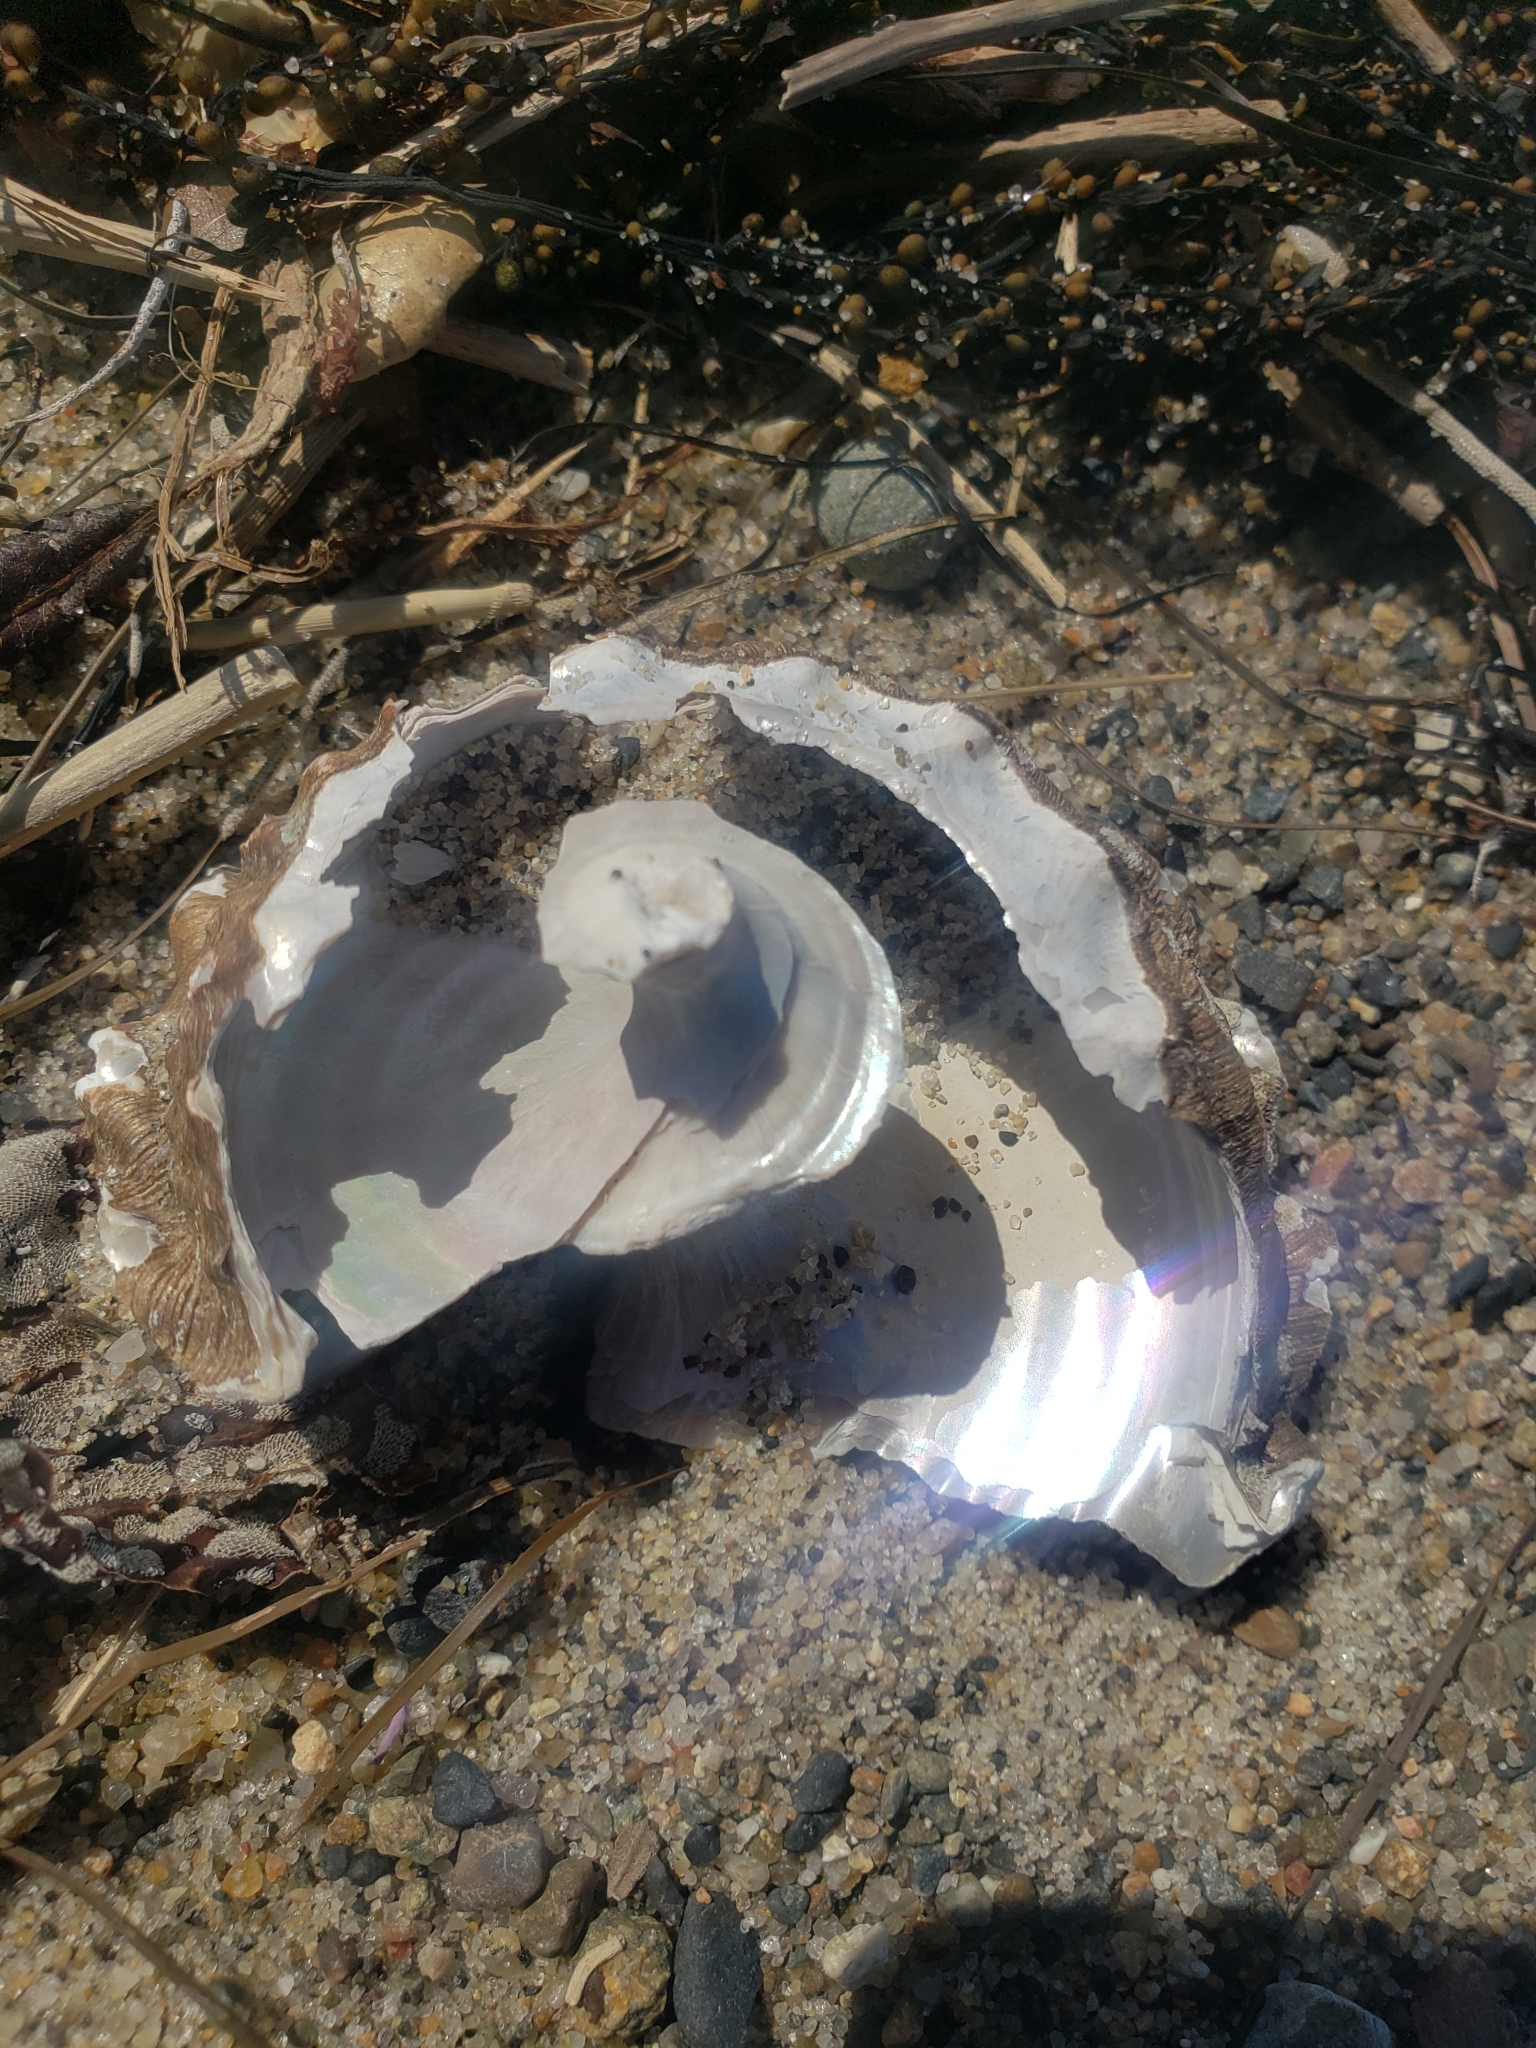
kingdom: Animalia
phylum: Mollusca
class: Gastropoda
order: Trochida
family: Turbinidae
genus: Megastraea
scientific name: Megastraea undosa
